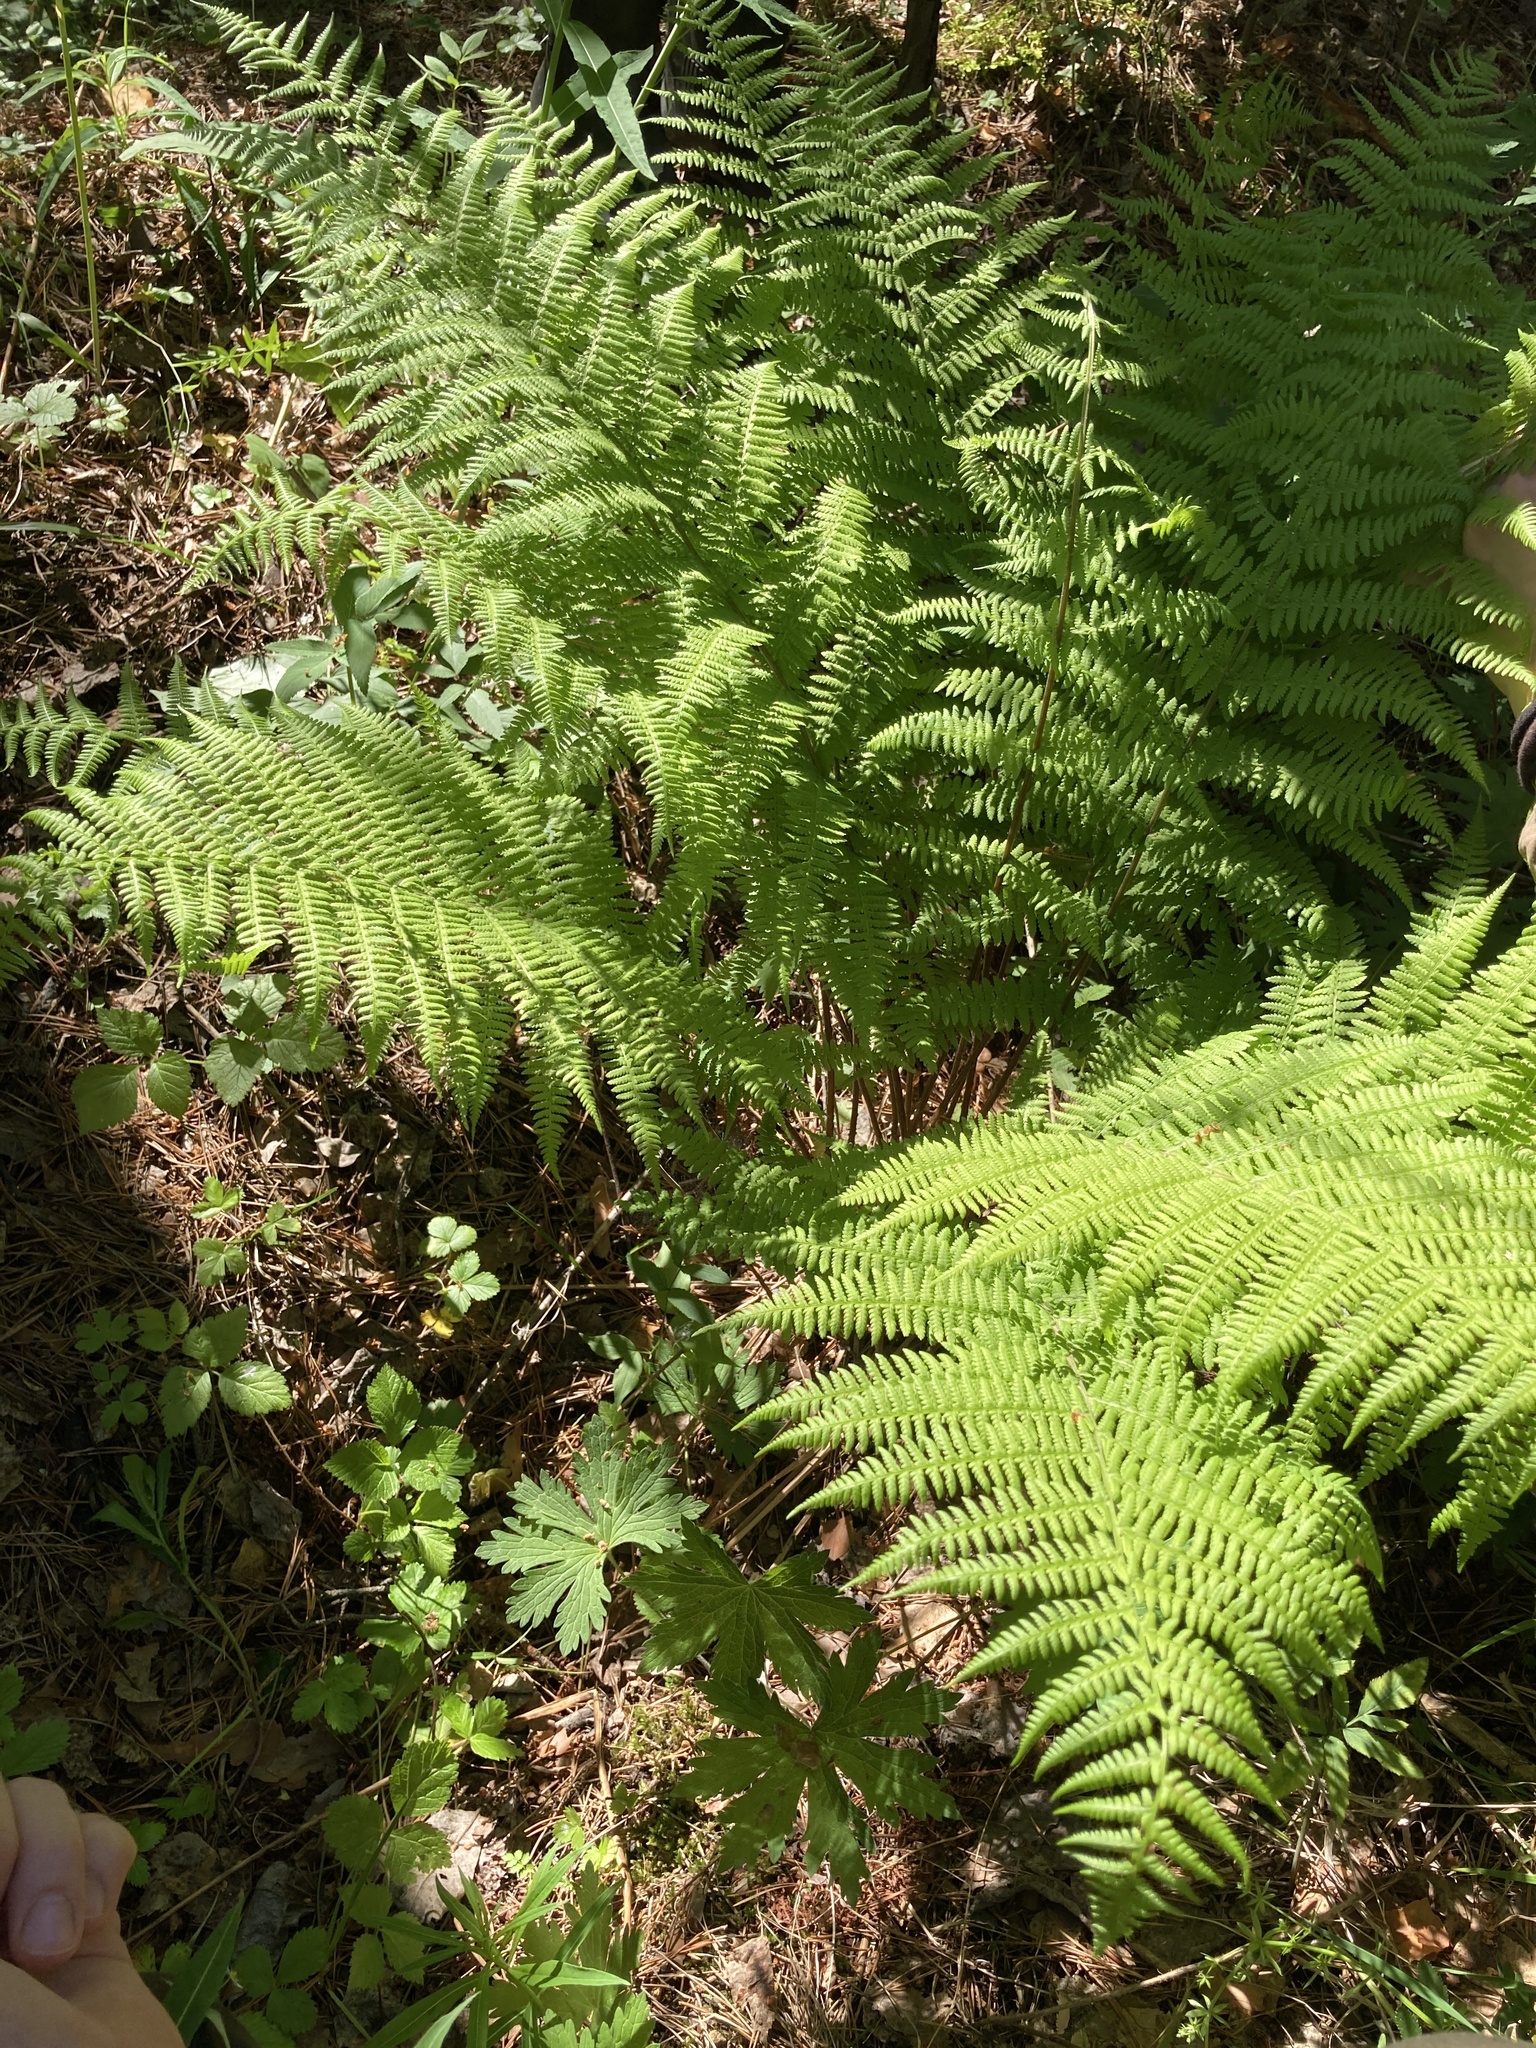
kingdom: Plantae
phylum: Tracheophyta
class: Polypodiopsida
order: Polypodiales
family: Athyriaceae
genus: Athyrium
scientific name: Athyrium filix-femina
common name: Lady fern
